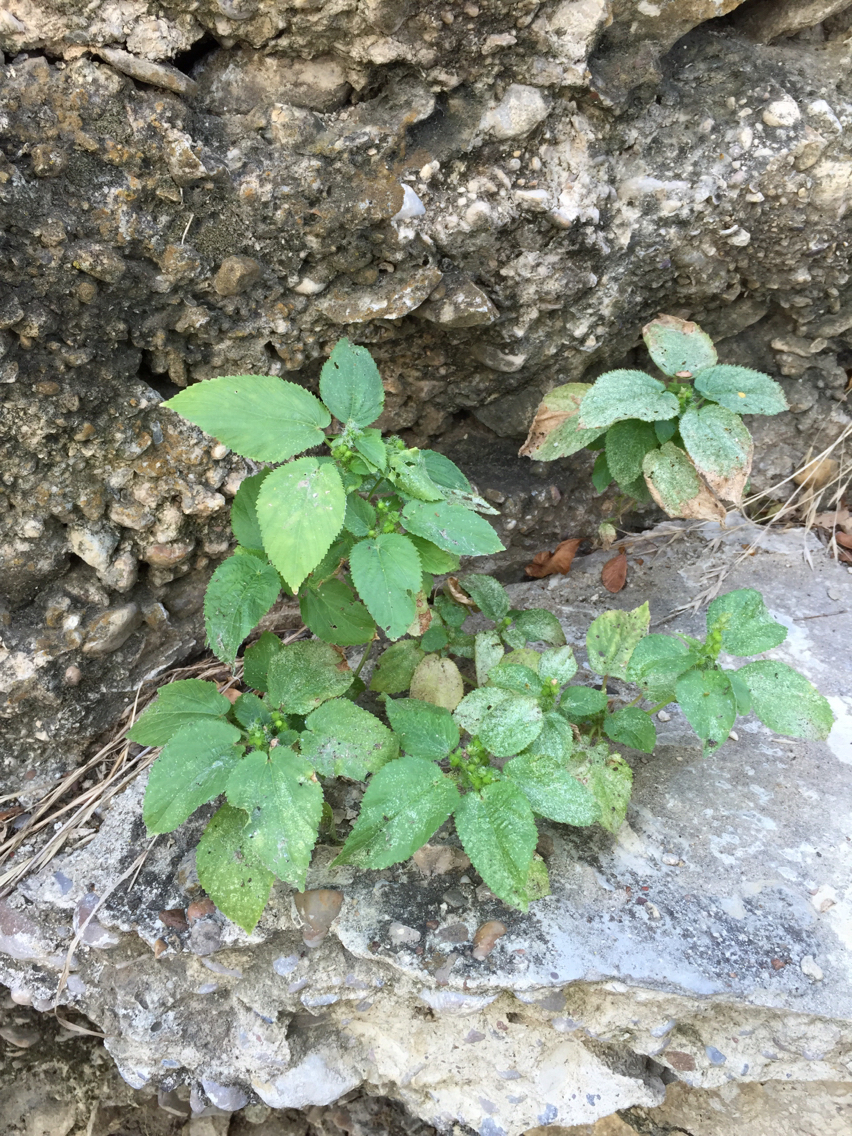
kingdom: Plantae
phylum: Tracheophyta
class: Magnoliopsida
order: Malpighiales
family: Euphorbiaceae
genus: Acalypha
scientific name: Acalypha ostryifolia
